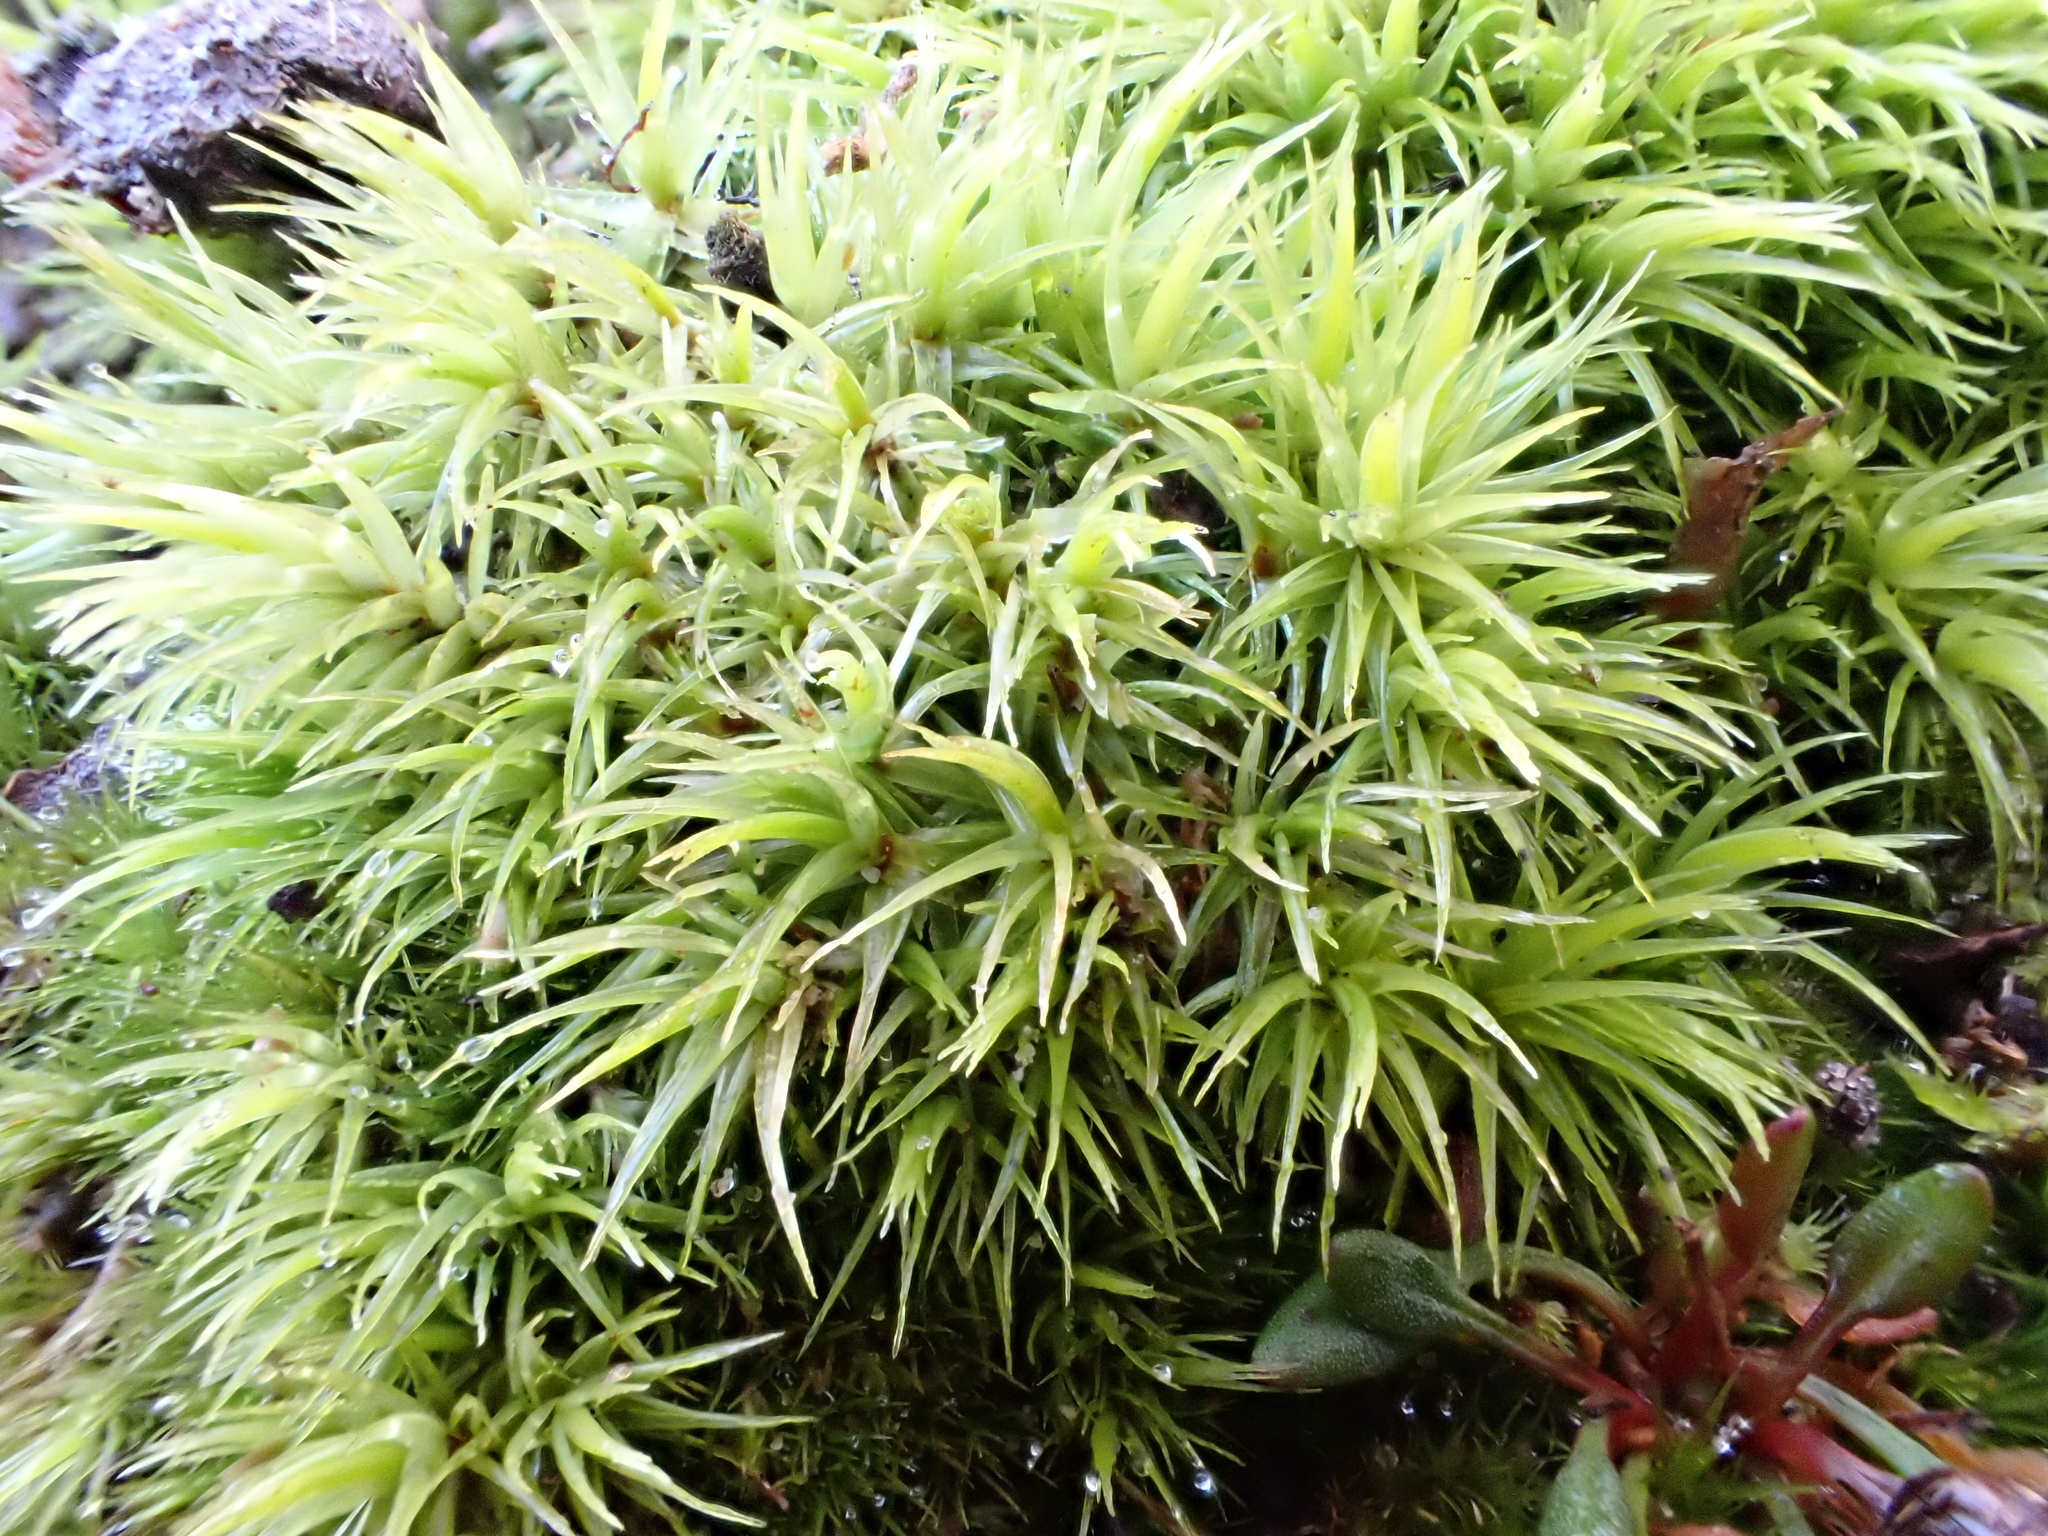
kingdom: Plantae
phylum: Bryophyta
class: Bryopsida
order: Dicranales
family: Dicranaceae
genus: Dicranum
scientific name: Dicranum scoparium
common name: Broom fork-moss
